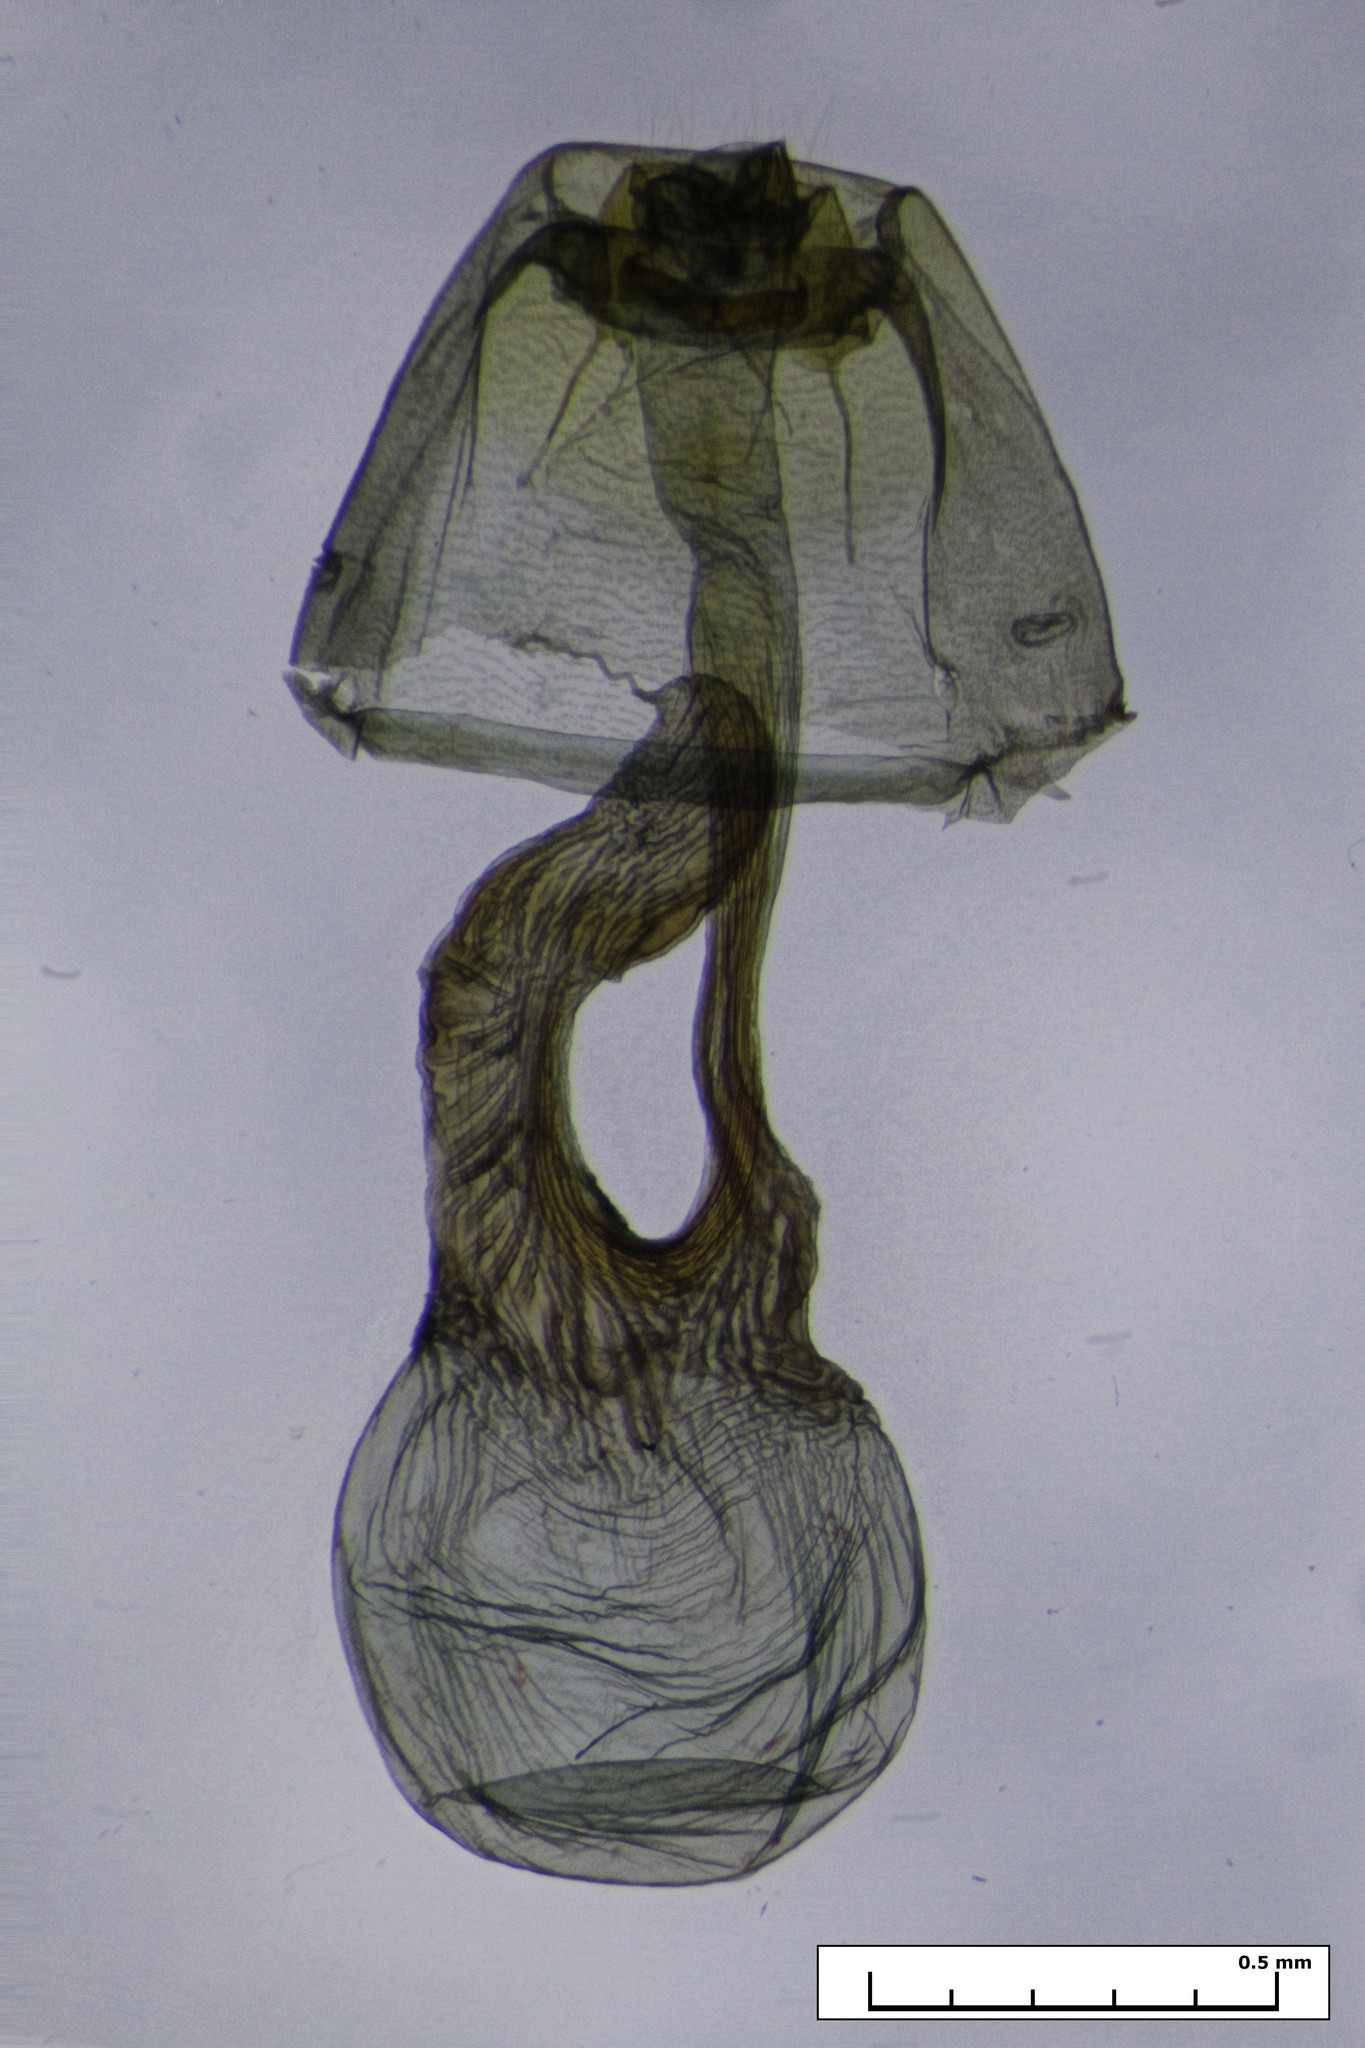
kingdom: Animalia
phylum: Arthropoda
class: Insecta
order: Lepidoptera
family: Noctuidae
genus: Proteuxoa
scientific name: Proteuxoa sanguinipuncta
